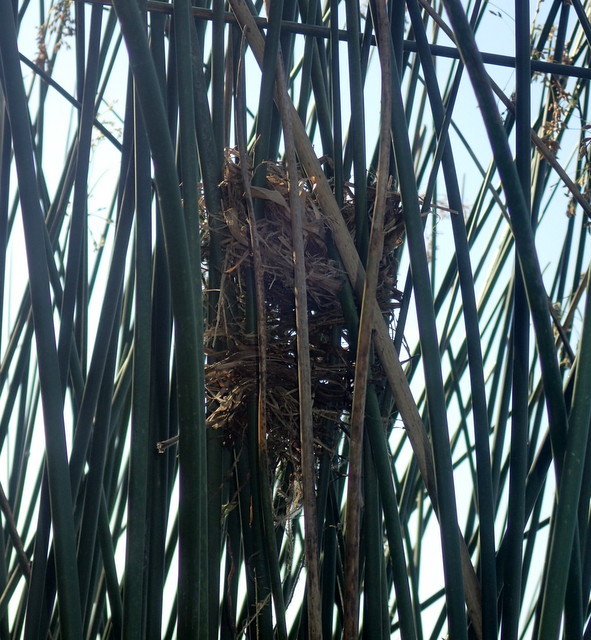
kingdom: Animalia
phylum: Chordata
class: Aves
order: Passeriformes
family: Icteridae
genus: Agelaius
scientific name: Agelaius phoeniceus
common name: Red-winged blackbird
